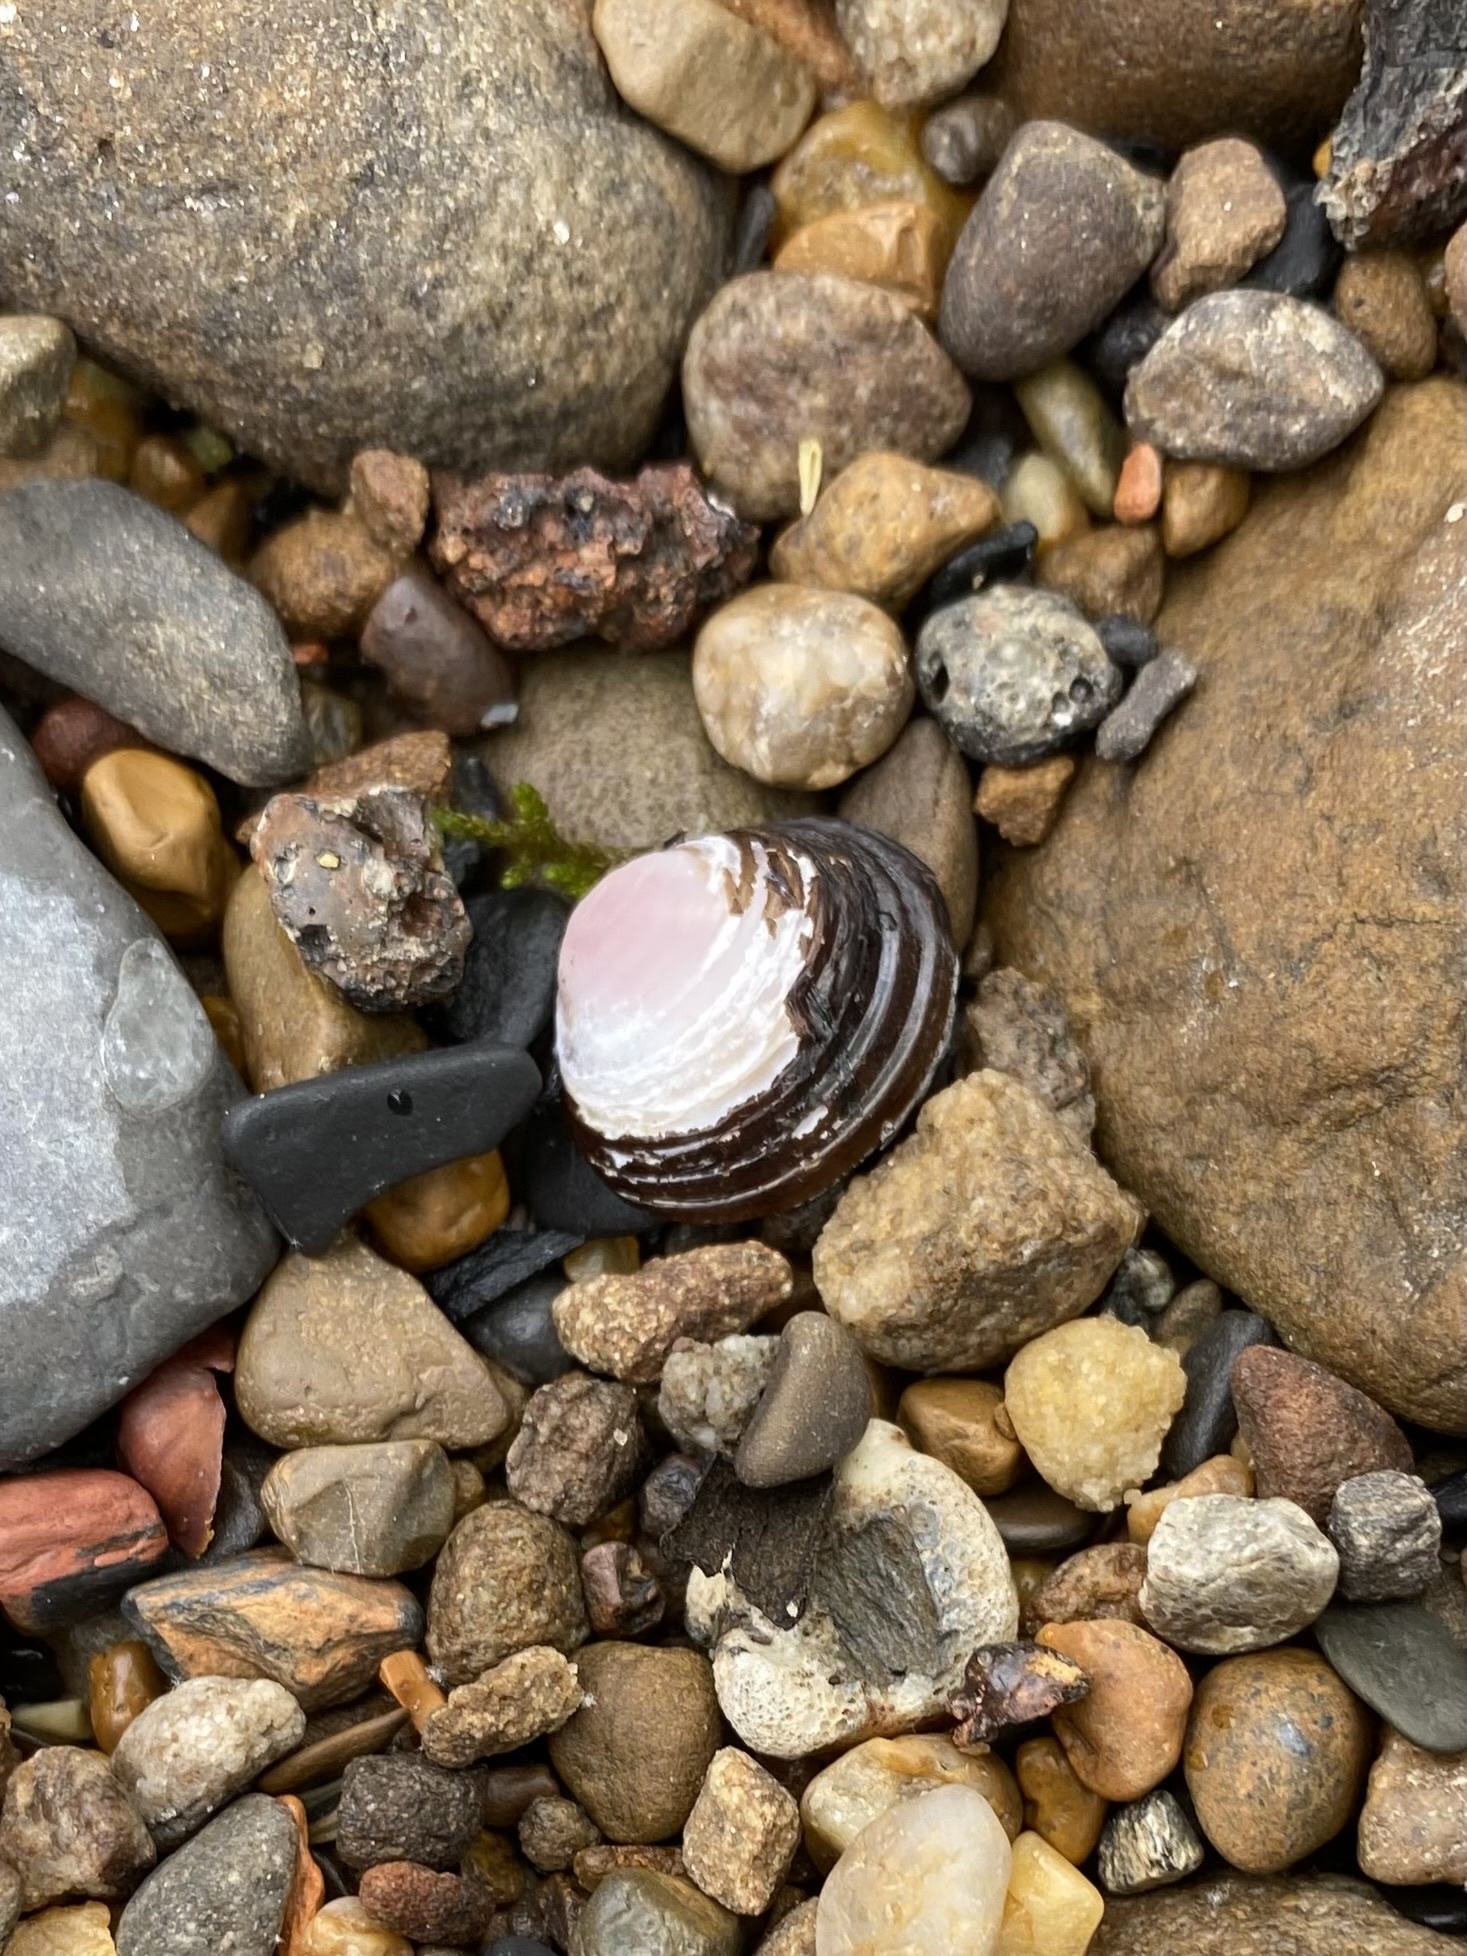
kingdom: Animalia
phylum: Mollusca
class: Bivalvia
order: Venerida
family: Cyrenidae
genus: Corbicula
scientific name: Corbicula fluminea
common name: Asian clam
